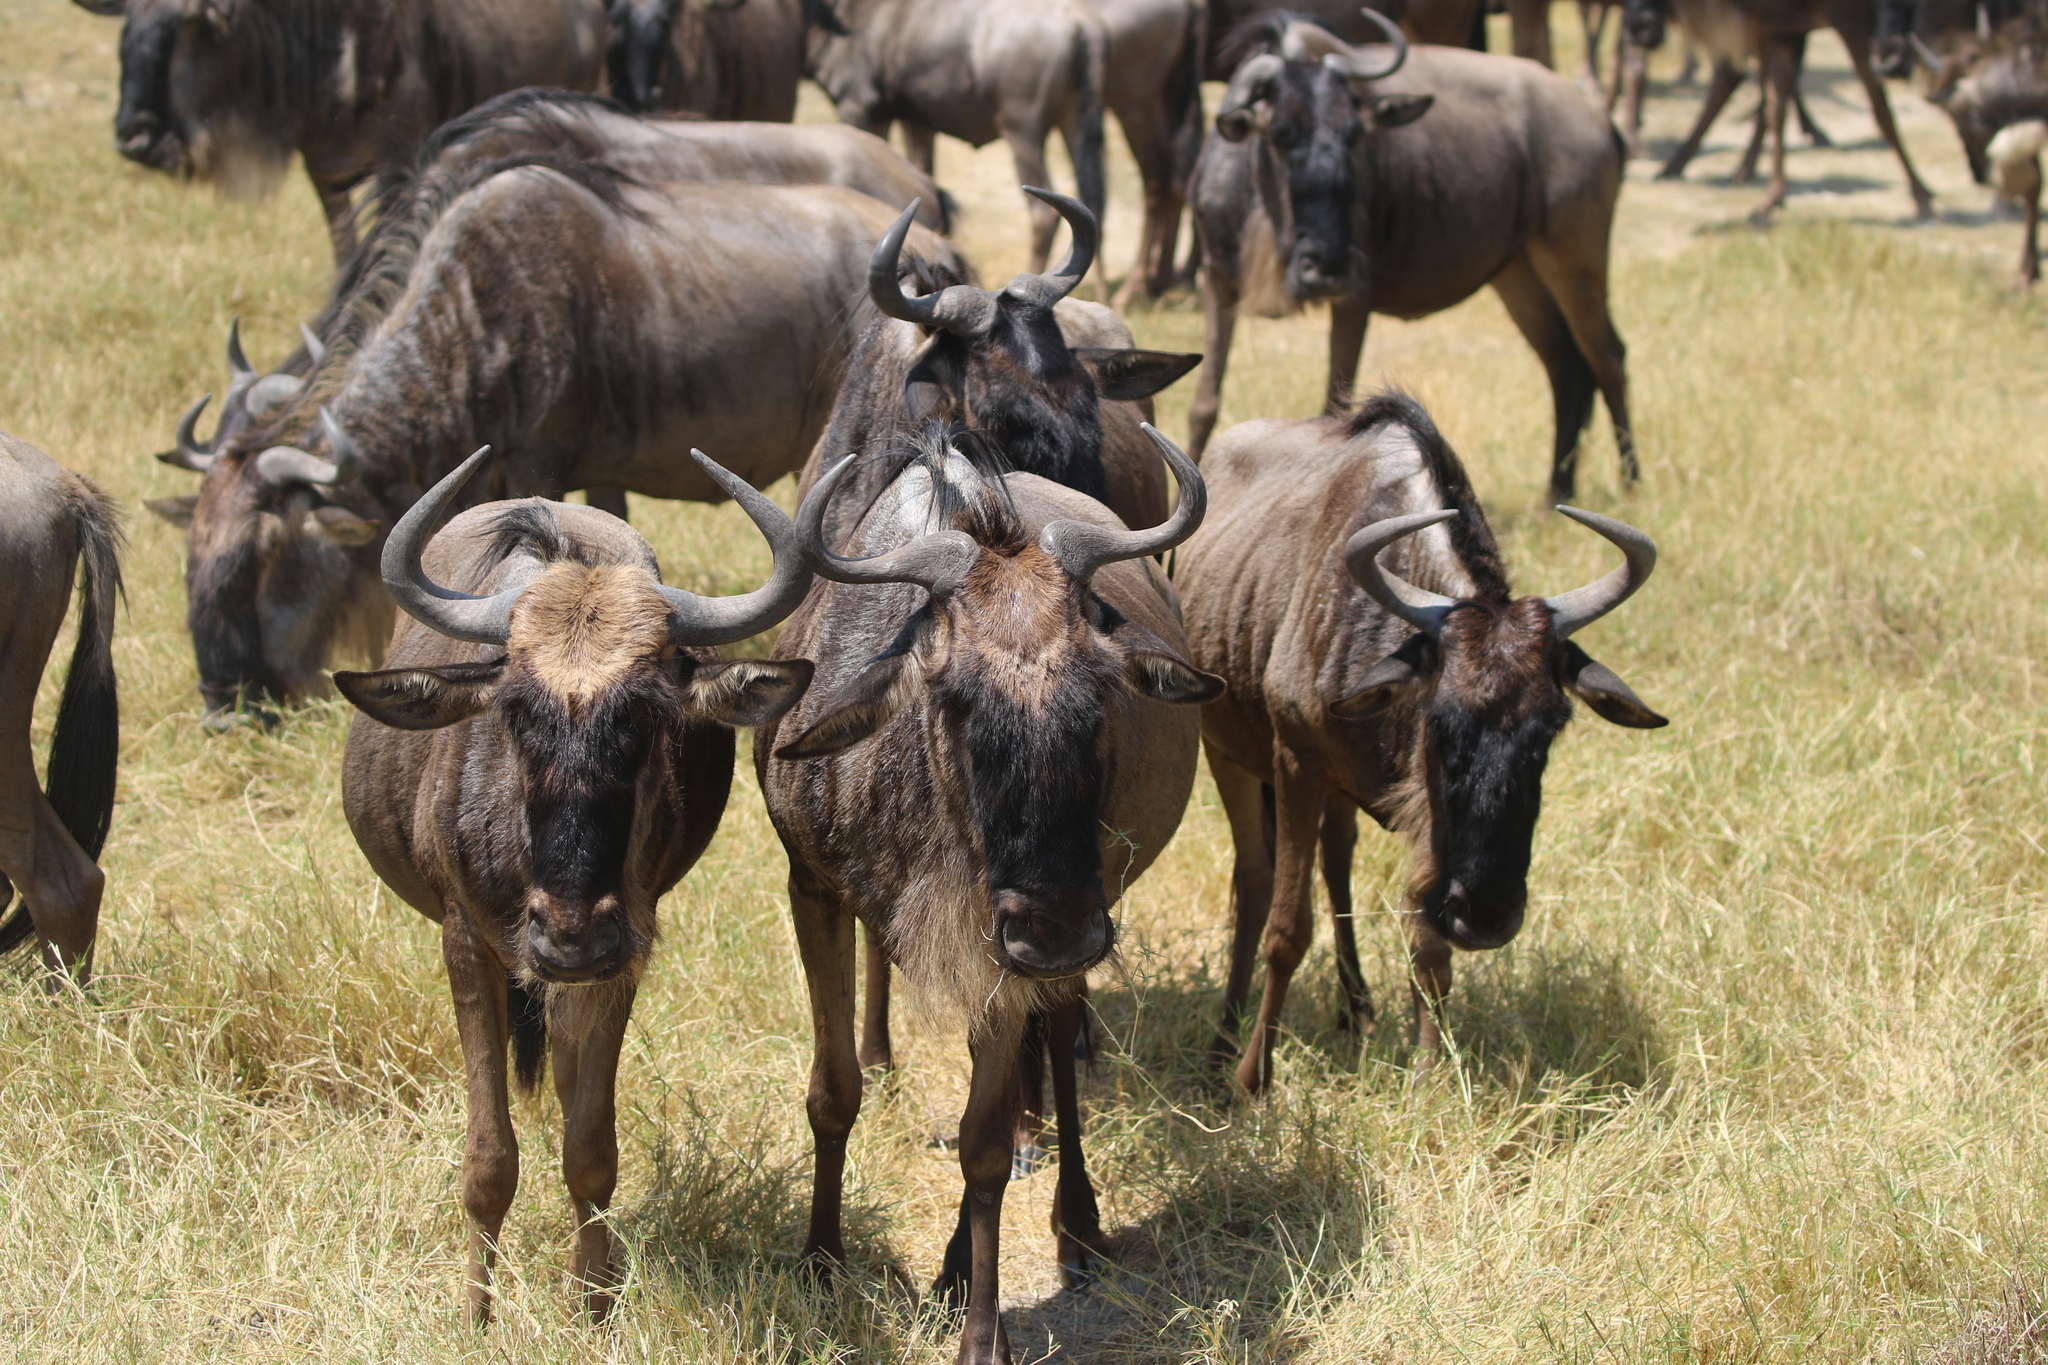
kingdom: Animalia
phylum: Chordata
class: Mammalia
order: Artiodactyla
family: Bovidae
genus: Connochaetes
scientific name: Connochaetes taurinus
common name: Blue wildebeest
